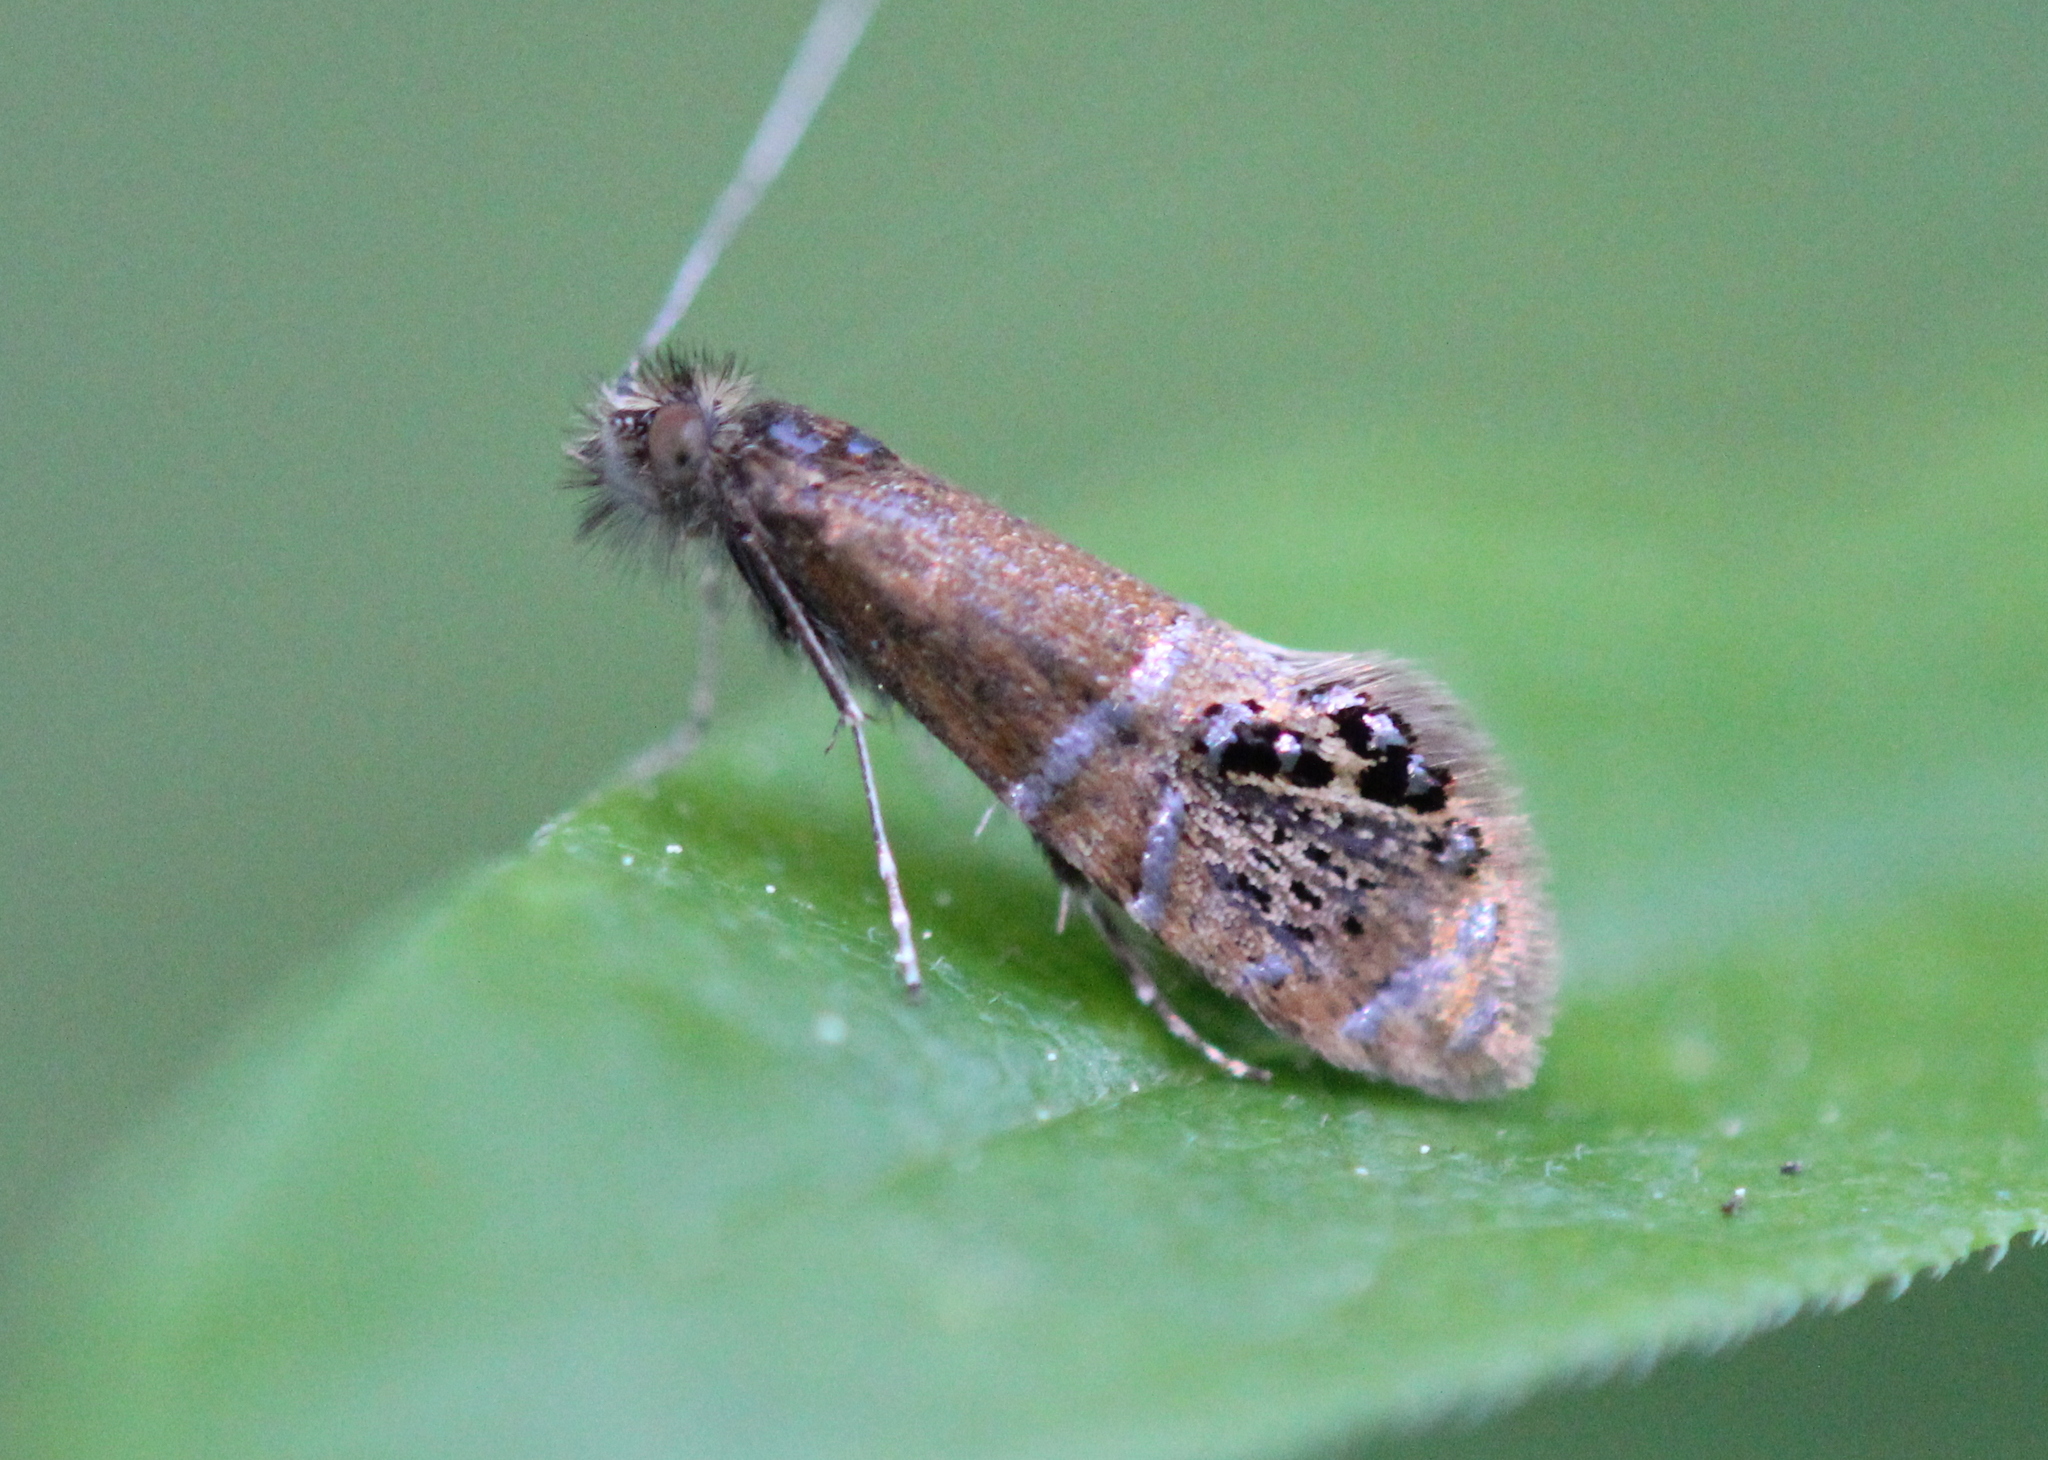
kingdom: Animalia
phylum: Arthropoda
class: Insecta
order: Lepidoptera
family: Adelidae
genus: Adela
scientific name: Adela ridingsella
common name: Ridings' fairy moth
